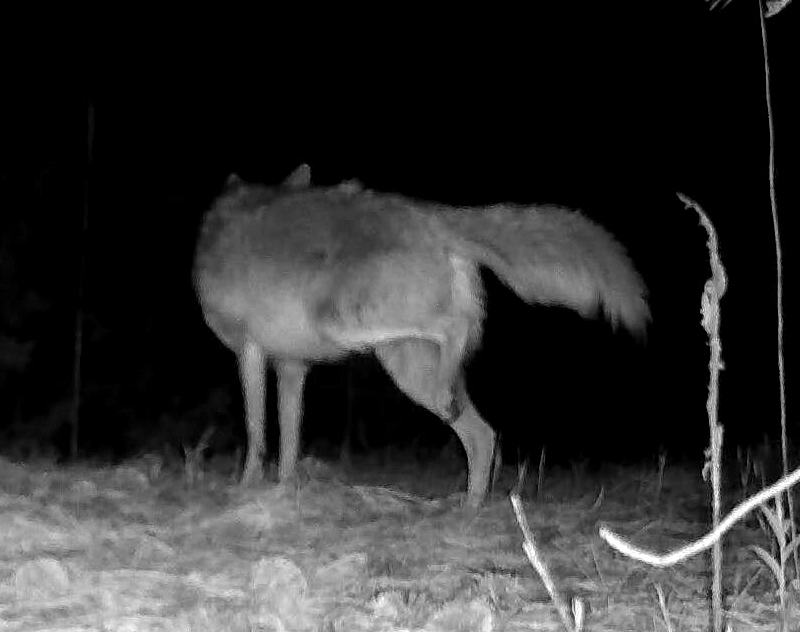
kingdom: Animalia
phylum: Chordata
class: Mammalia
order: Carnivora
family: Canidae
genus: Canis
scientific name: Canis latrans
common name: Coyote
